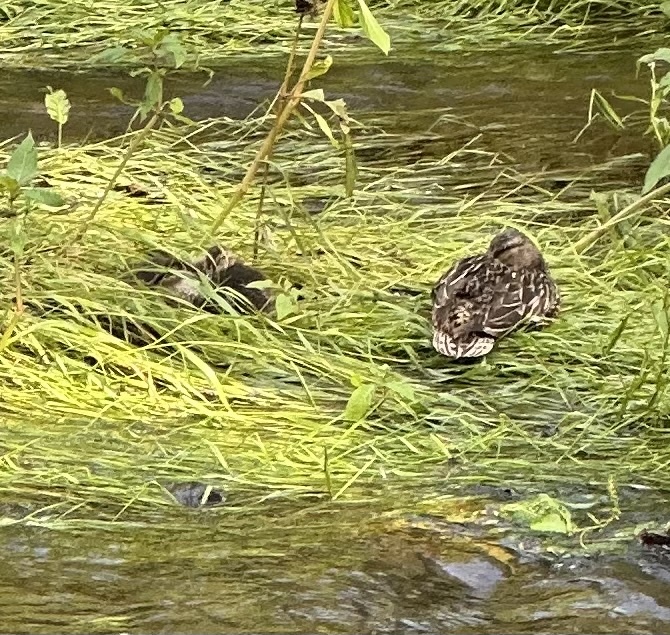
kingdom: Animalia
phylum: Chordata
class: Aves
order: Anseriformes
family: Anatidae
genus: Anas
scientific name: Anas platyrhynchos
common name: Mallard
